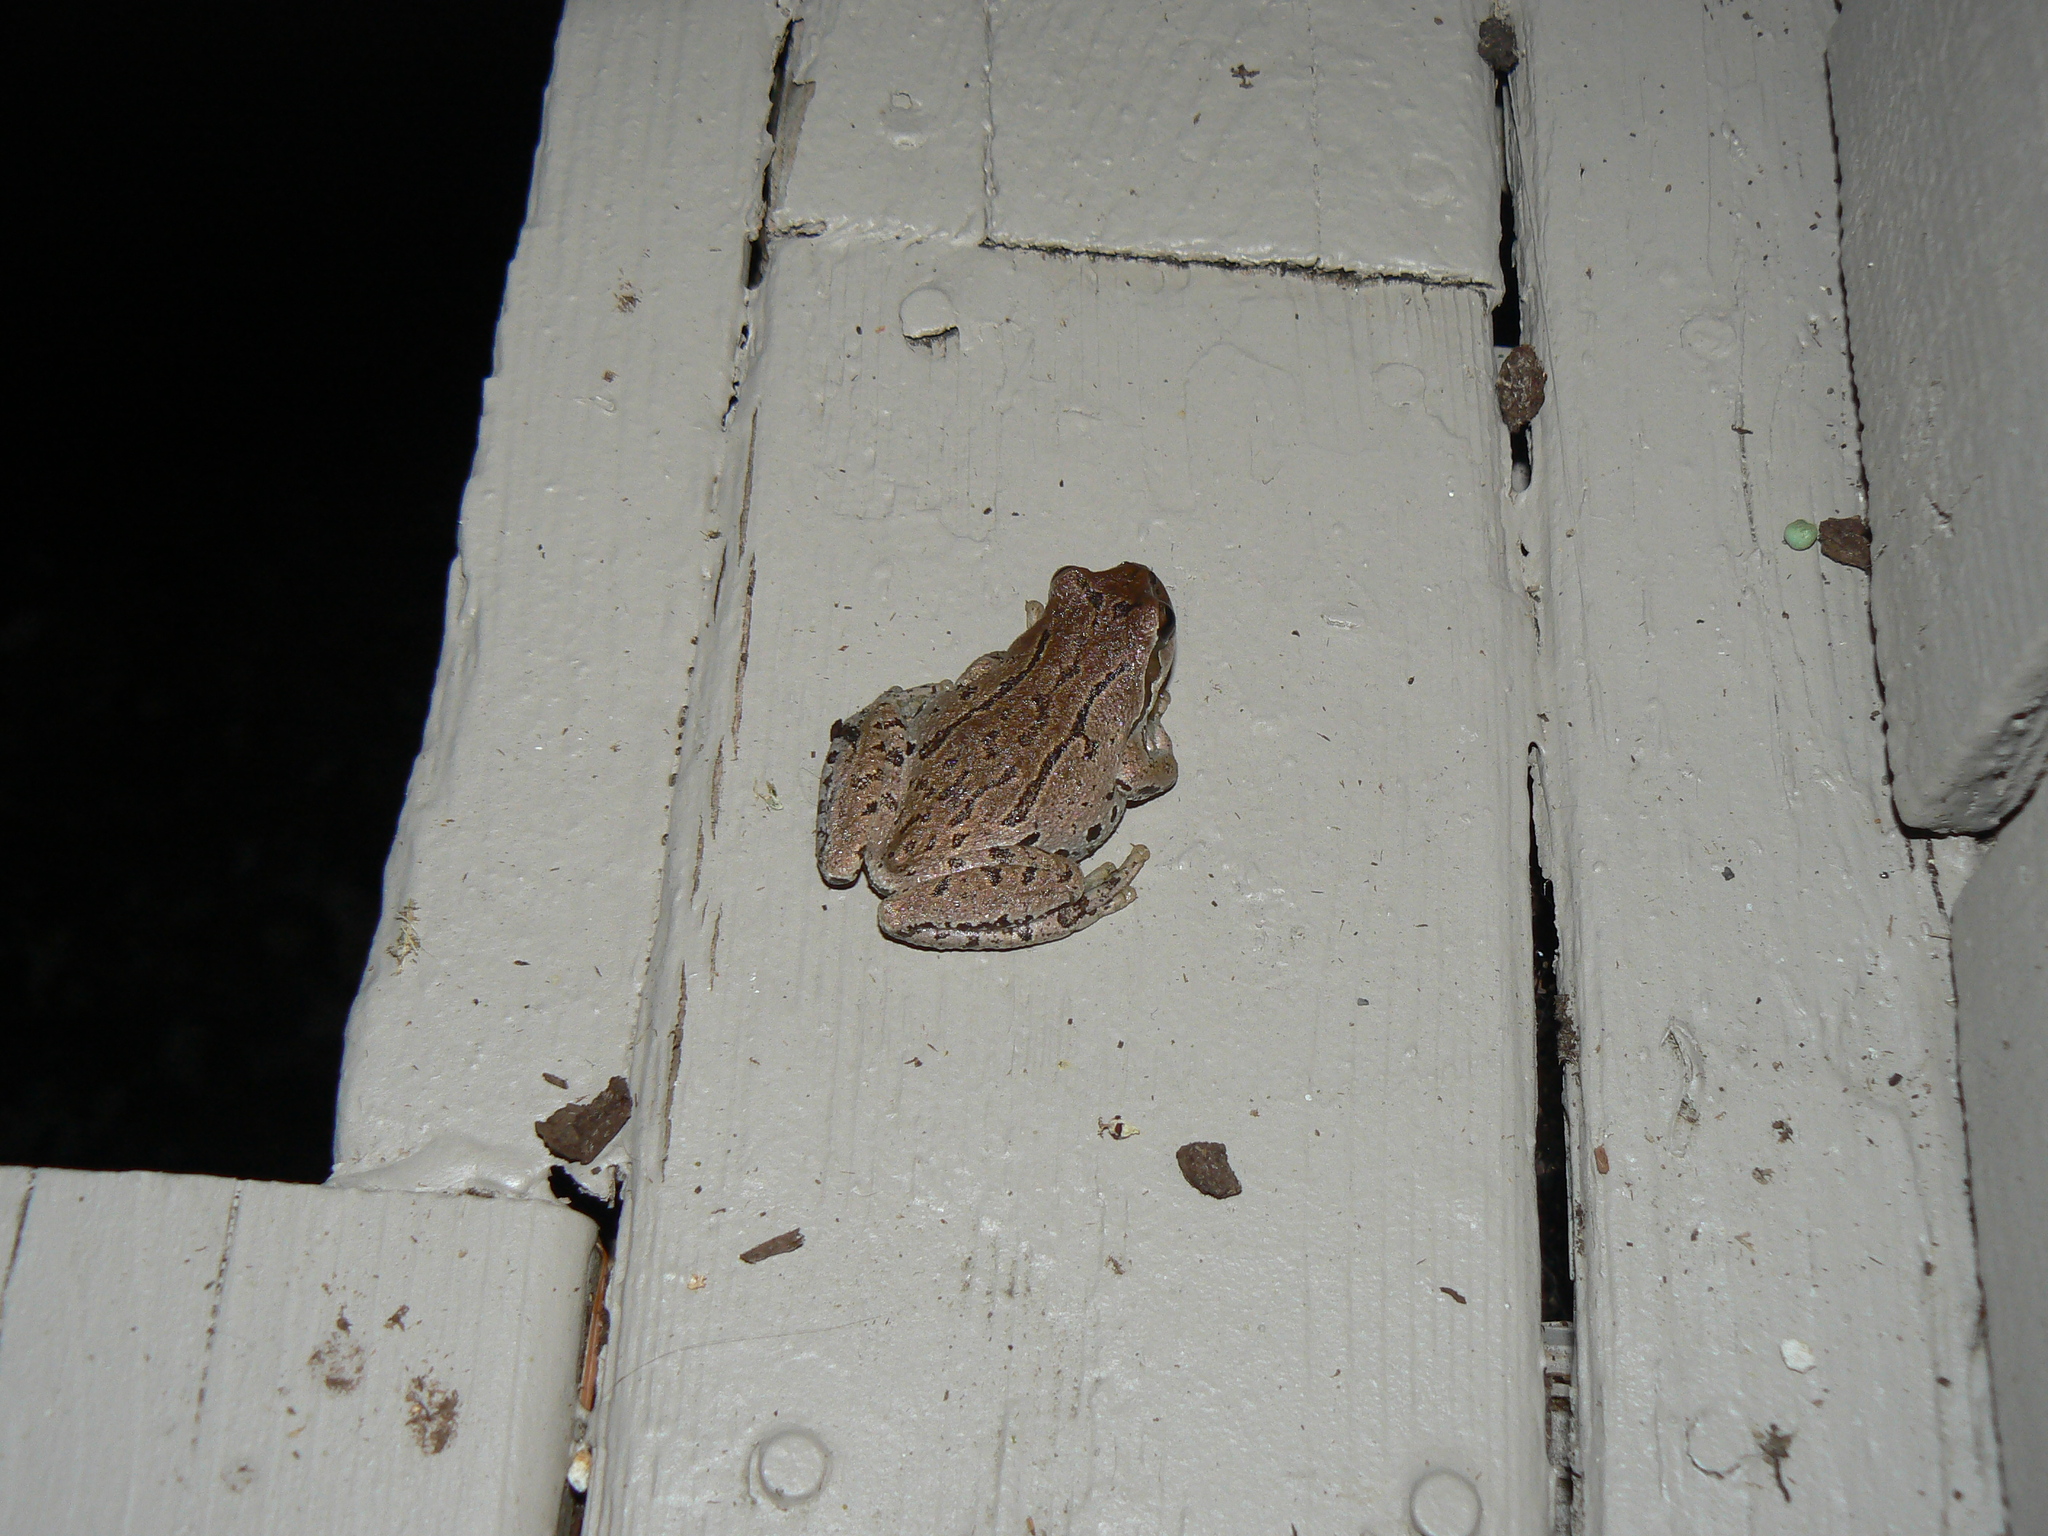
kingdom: Animalia
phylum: Chordata
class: Amphibia
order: Anura
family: Hylidae
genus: Pseudacris
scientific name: Pseudacris regilla
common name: Pacific chorus frog
